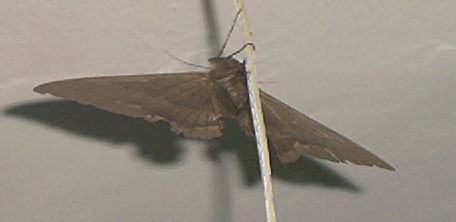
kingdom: Animalia
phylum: Arthropoda
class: Insecta
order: Lepidoptera
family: Erebidae
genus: Ascalapha
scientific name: Ascalapha odorata
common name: Black witch
